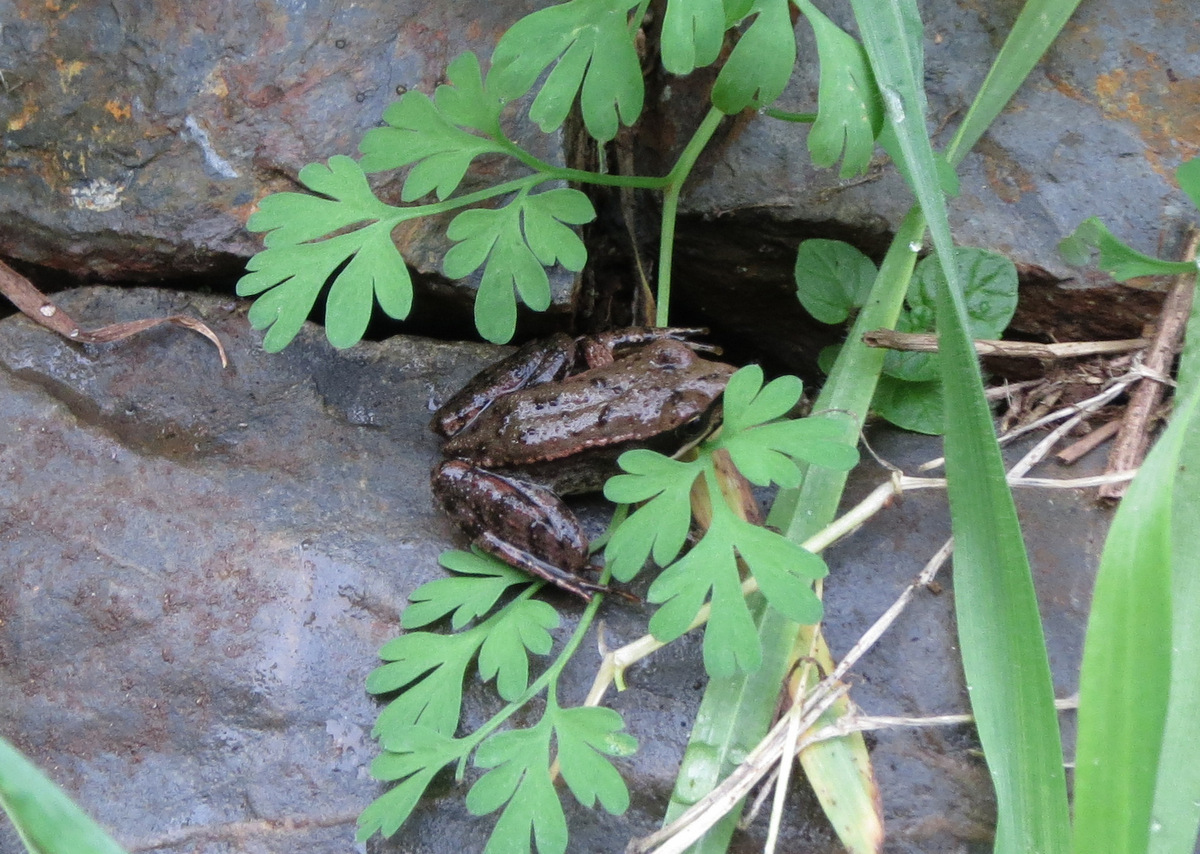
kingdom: Animalia
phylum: Chordata
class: Amphibia
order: Anura
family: Ranidae
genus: Rana
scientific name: Rana iberica
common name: Iberian frog
